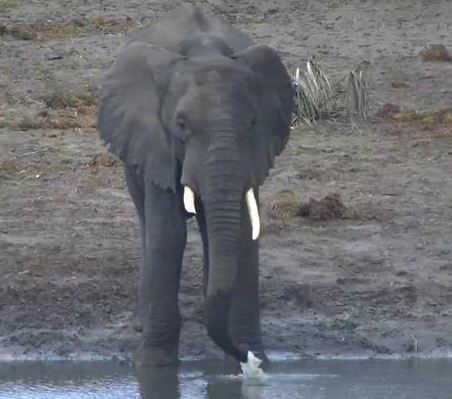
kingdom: Animalia
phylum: Chordata
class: Mammalia
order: Proboscidea
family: Elephantidae
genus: Loxodonta
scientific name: Loxodonta africana
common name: African elephant
